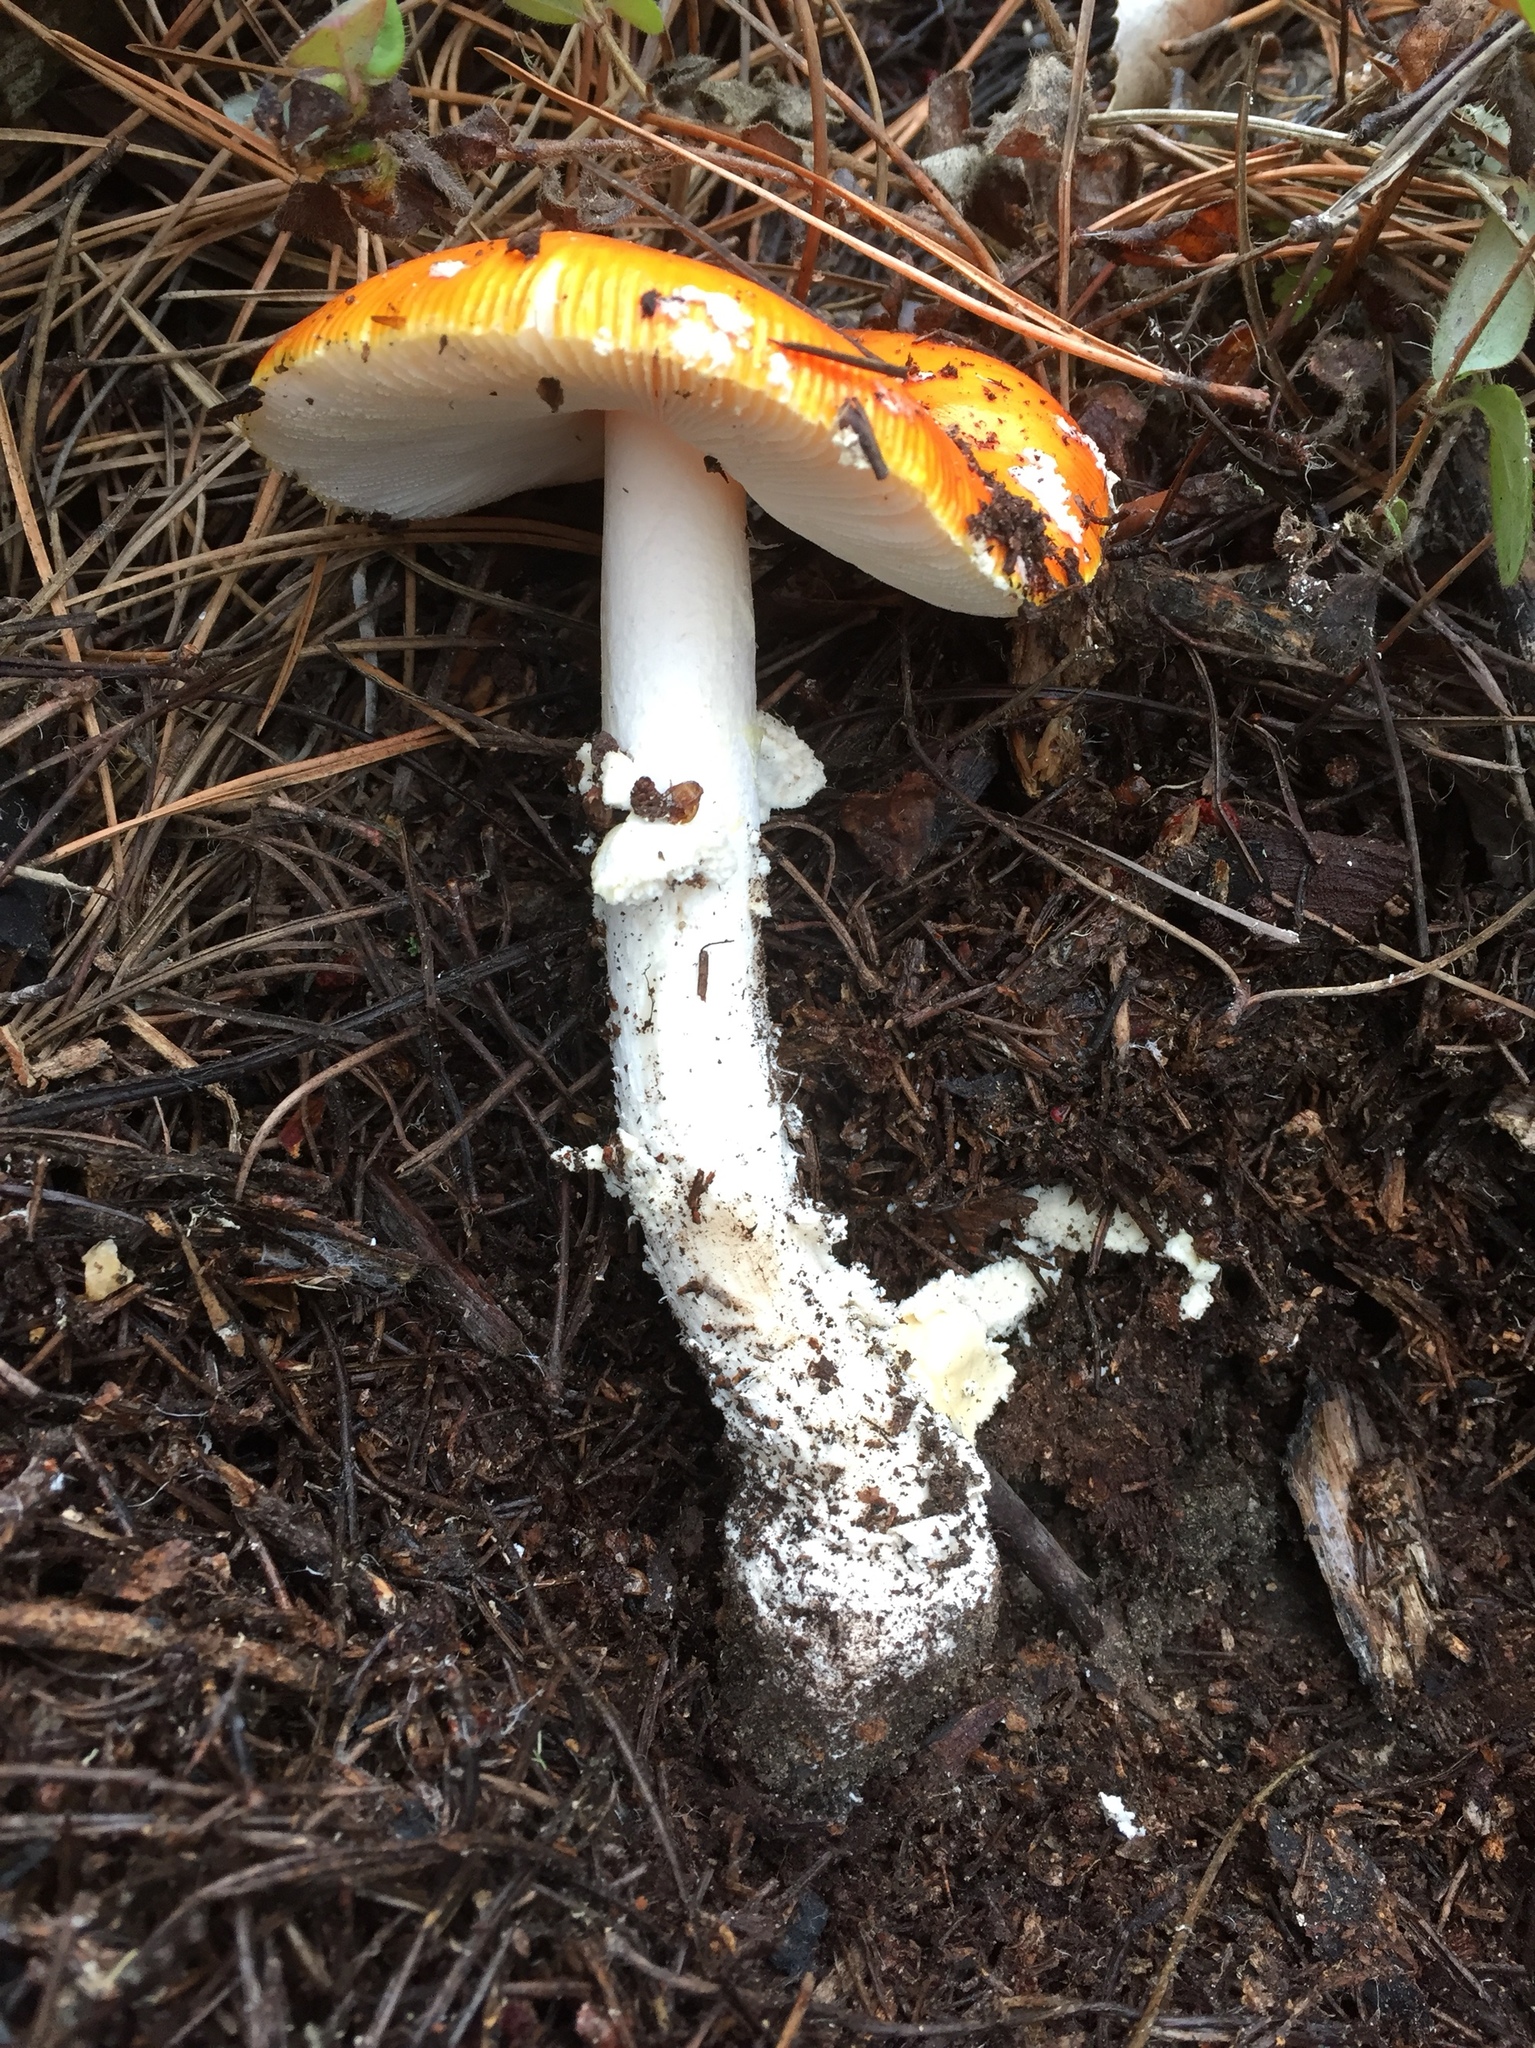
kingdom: Fungi
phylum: Basidiomycota
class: Agaricomycetes
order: Agaricales
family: Amanitaceae
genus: Amanita
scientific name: Amanita muscaria
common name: Fly agaric
